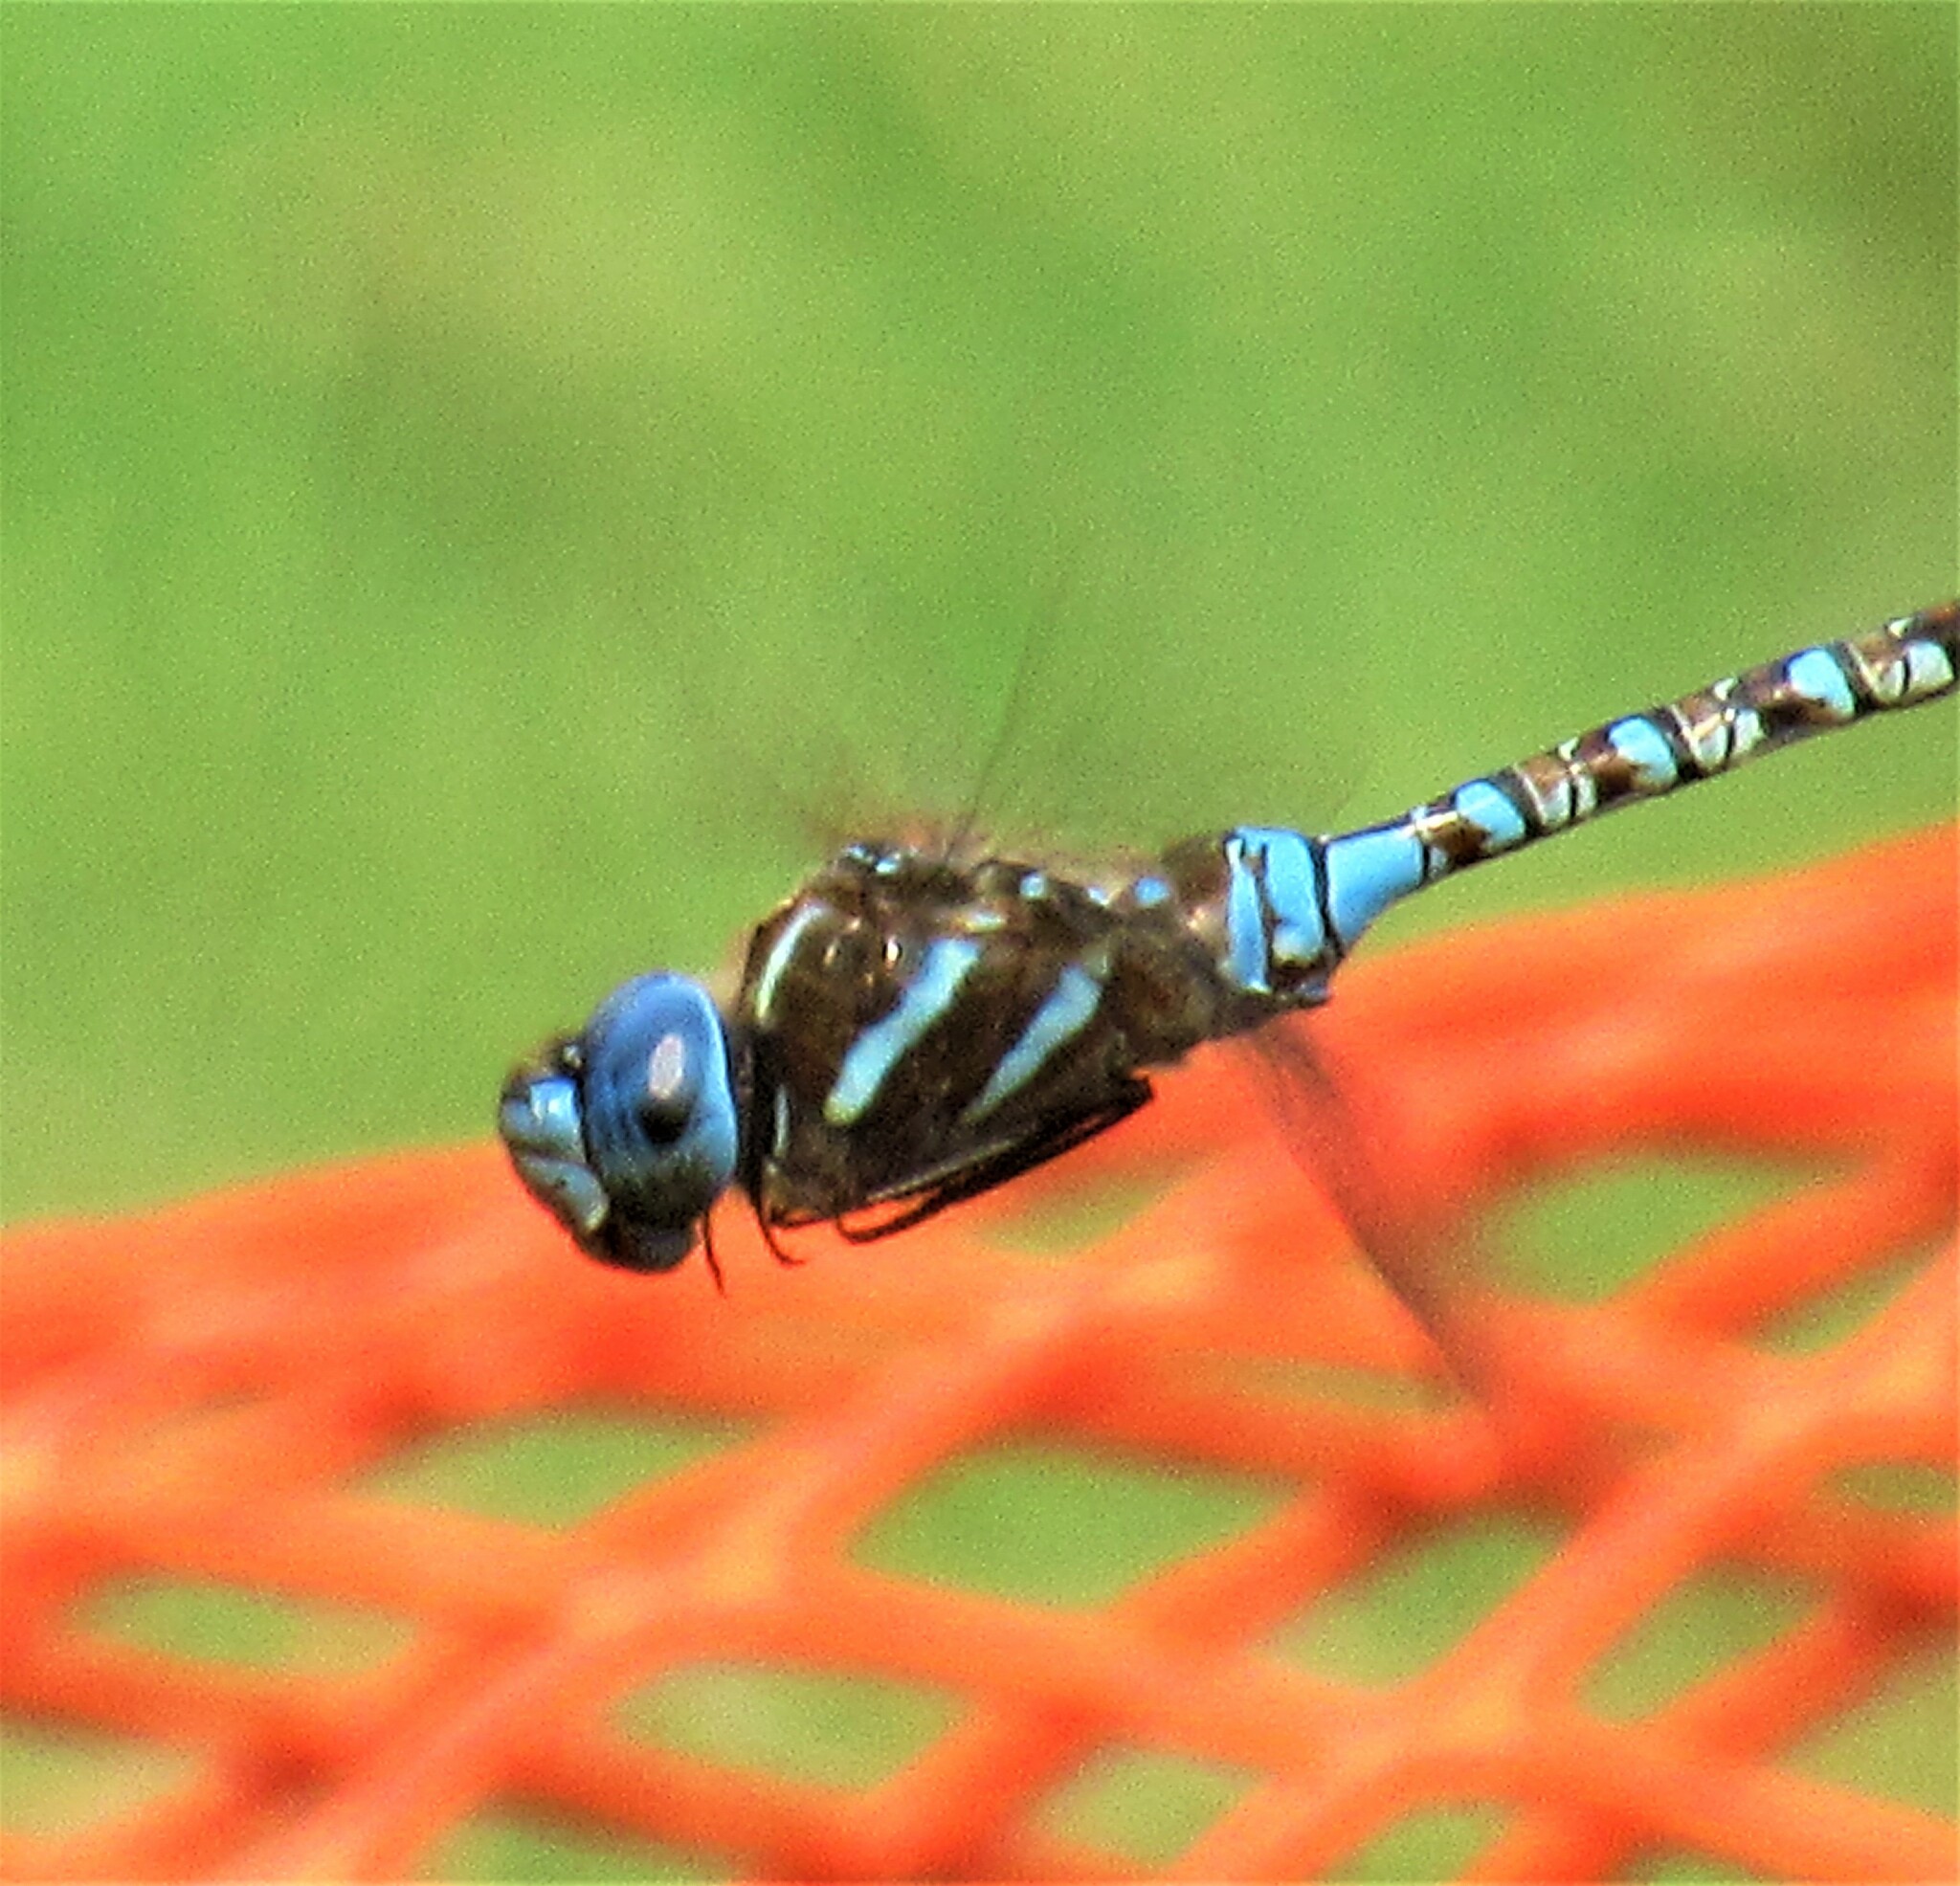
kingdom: Animalia
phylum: Arthropoda
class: Insecta
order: Odonata
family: Aeshnidae
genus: Rhionaeschna
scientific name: Rhionaeschna multicolor
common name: Blue-eyed darner
